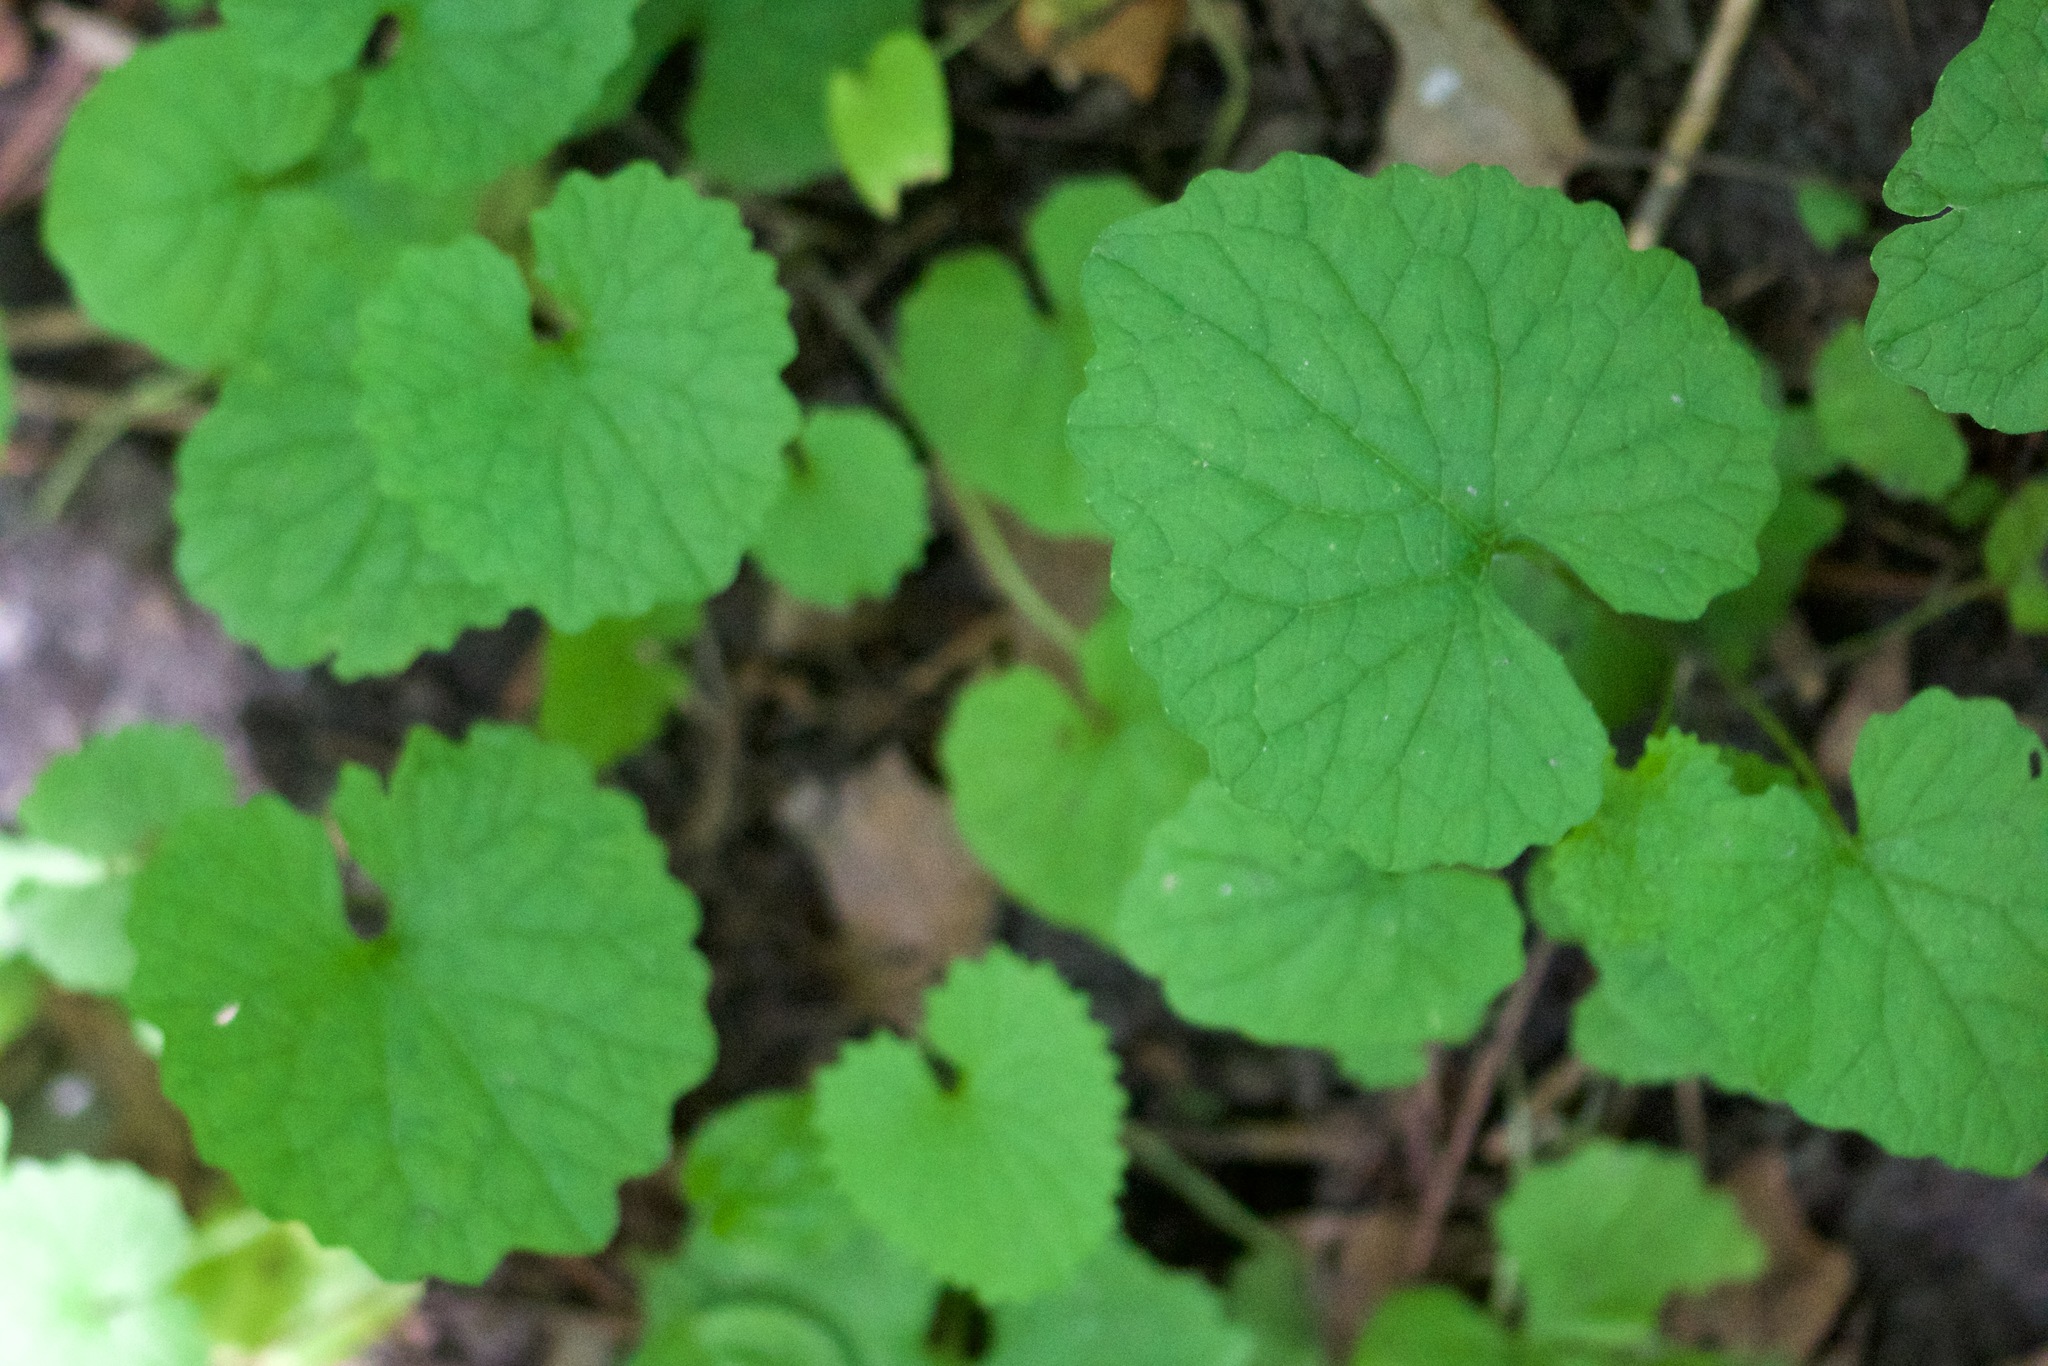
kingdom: Plantae
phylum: Tracheophyta
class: Magnoliopsida
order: Brassicales
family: Brassicaceae
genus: Alliaria
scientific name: Alliaria petiolata
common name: Garlic mustard
